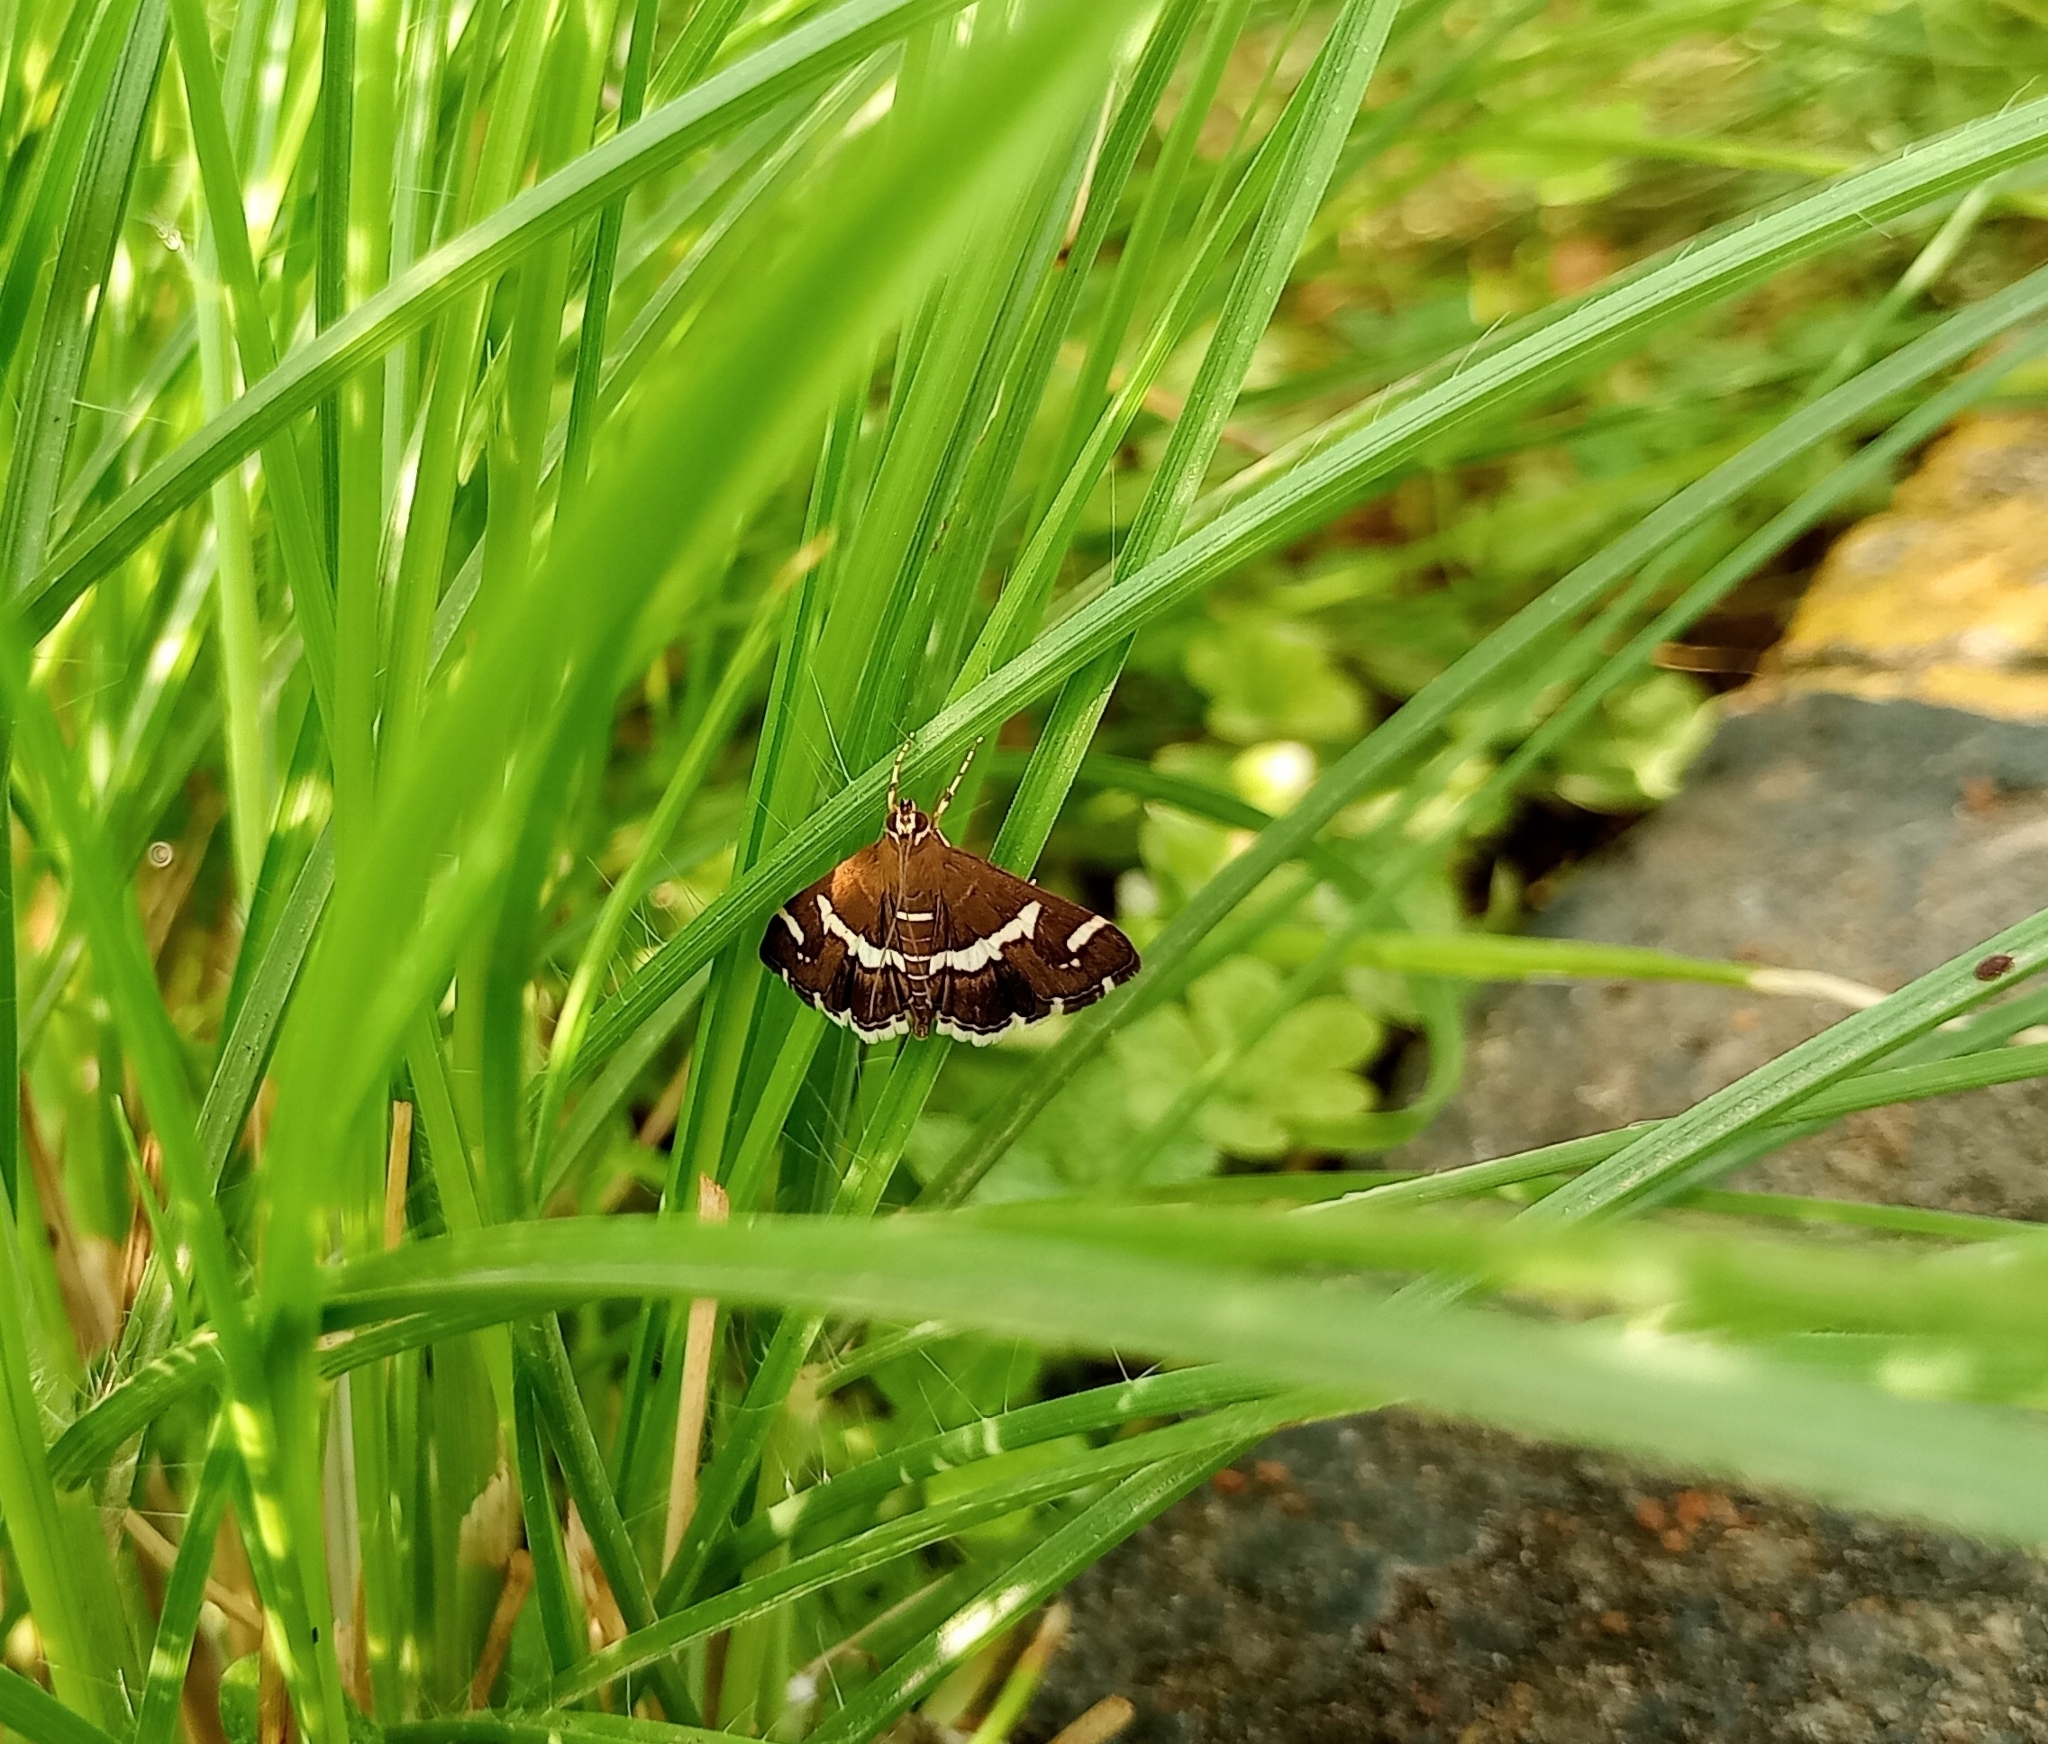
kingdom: Animalia
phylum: Arthropoda
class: Insecta
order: Lepidoptera
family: Crambidae
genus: Spoladea
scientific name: Spoladea recurvalis
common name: Beet webworm moth
